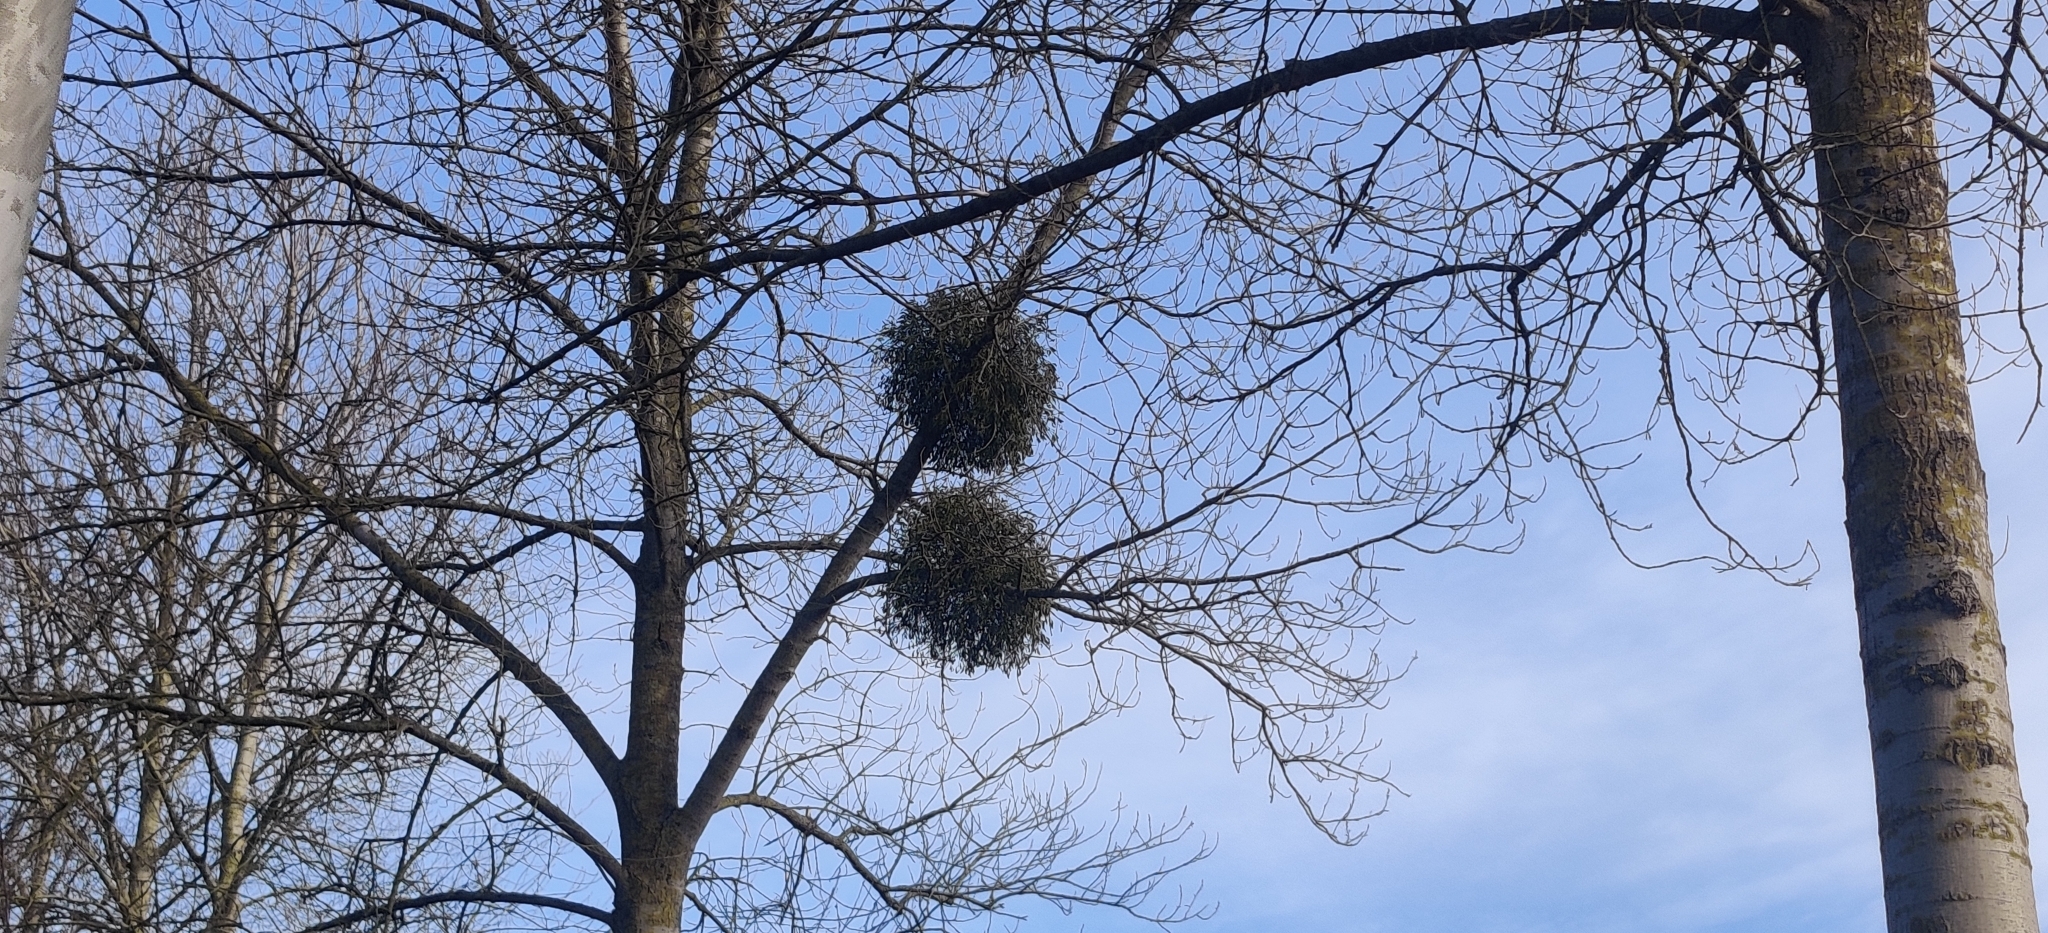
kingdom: Plantae
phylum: Tracheophyta
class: Magnoliopsida
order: Santalales
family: Viscaceae
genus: Viscum
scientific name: Viscum album
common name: Mistletoe
